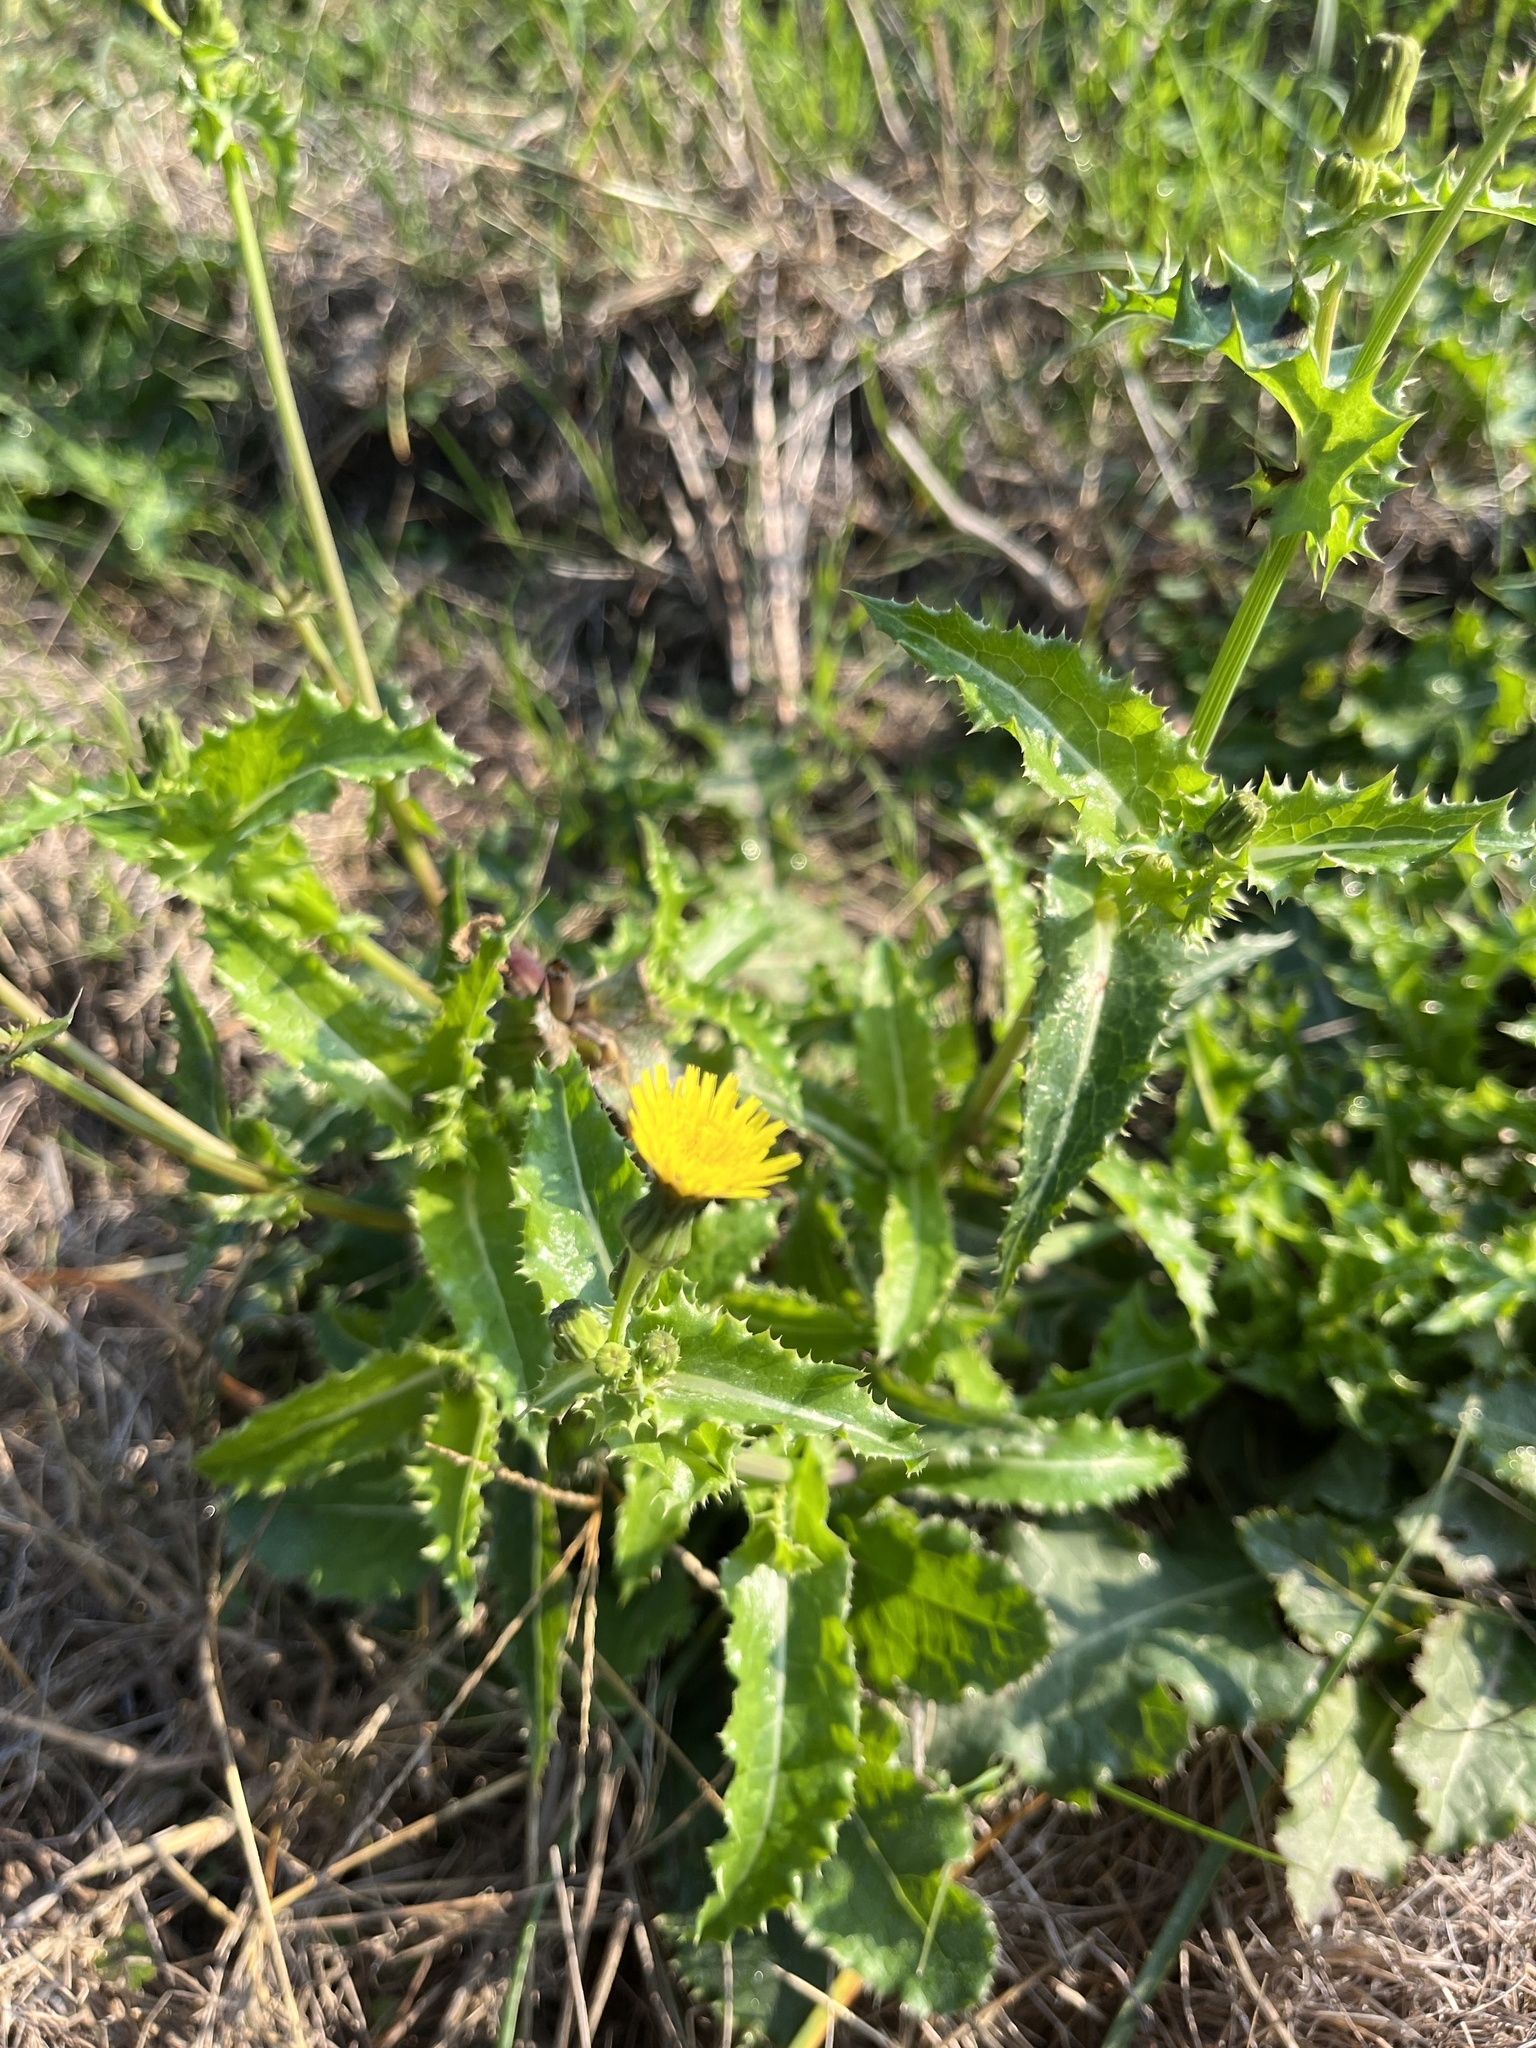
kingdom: Plantae
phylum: Tracheophyta
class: Magnoliopsida
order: Asterales
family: Asteraceae
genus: Sonchus
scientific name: Sonchus asper
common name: Prickly sow-thistle
